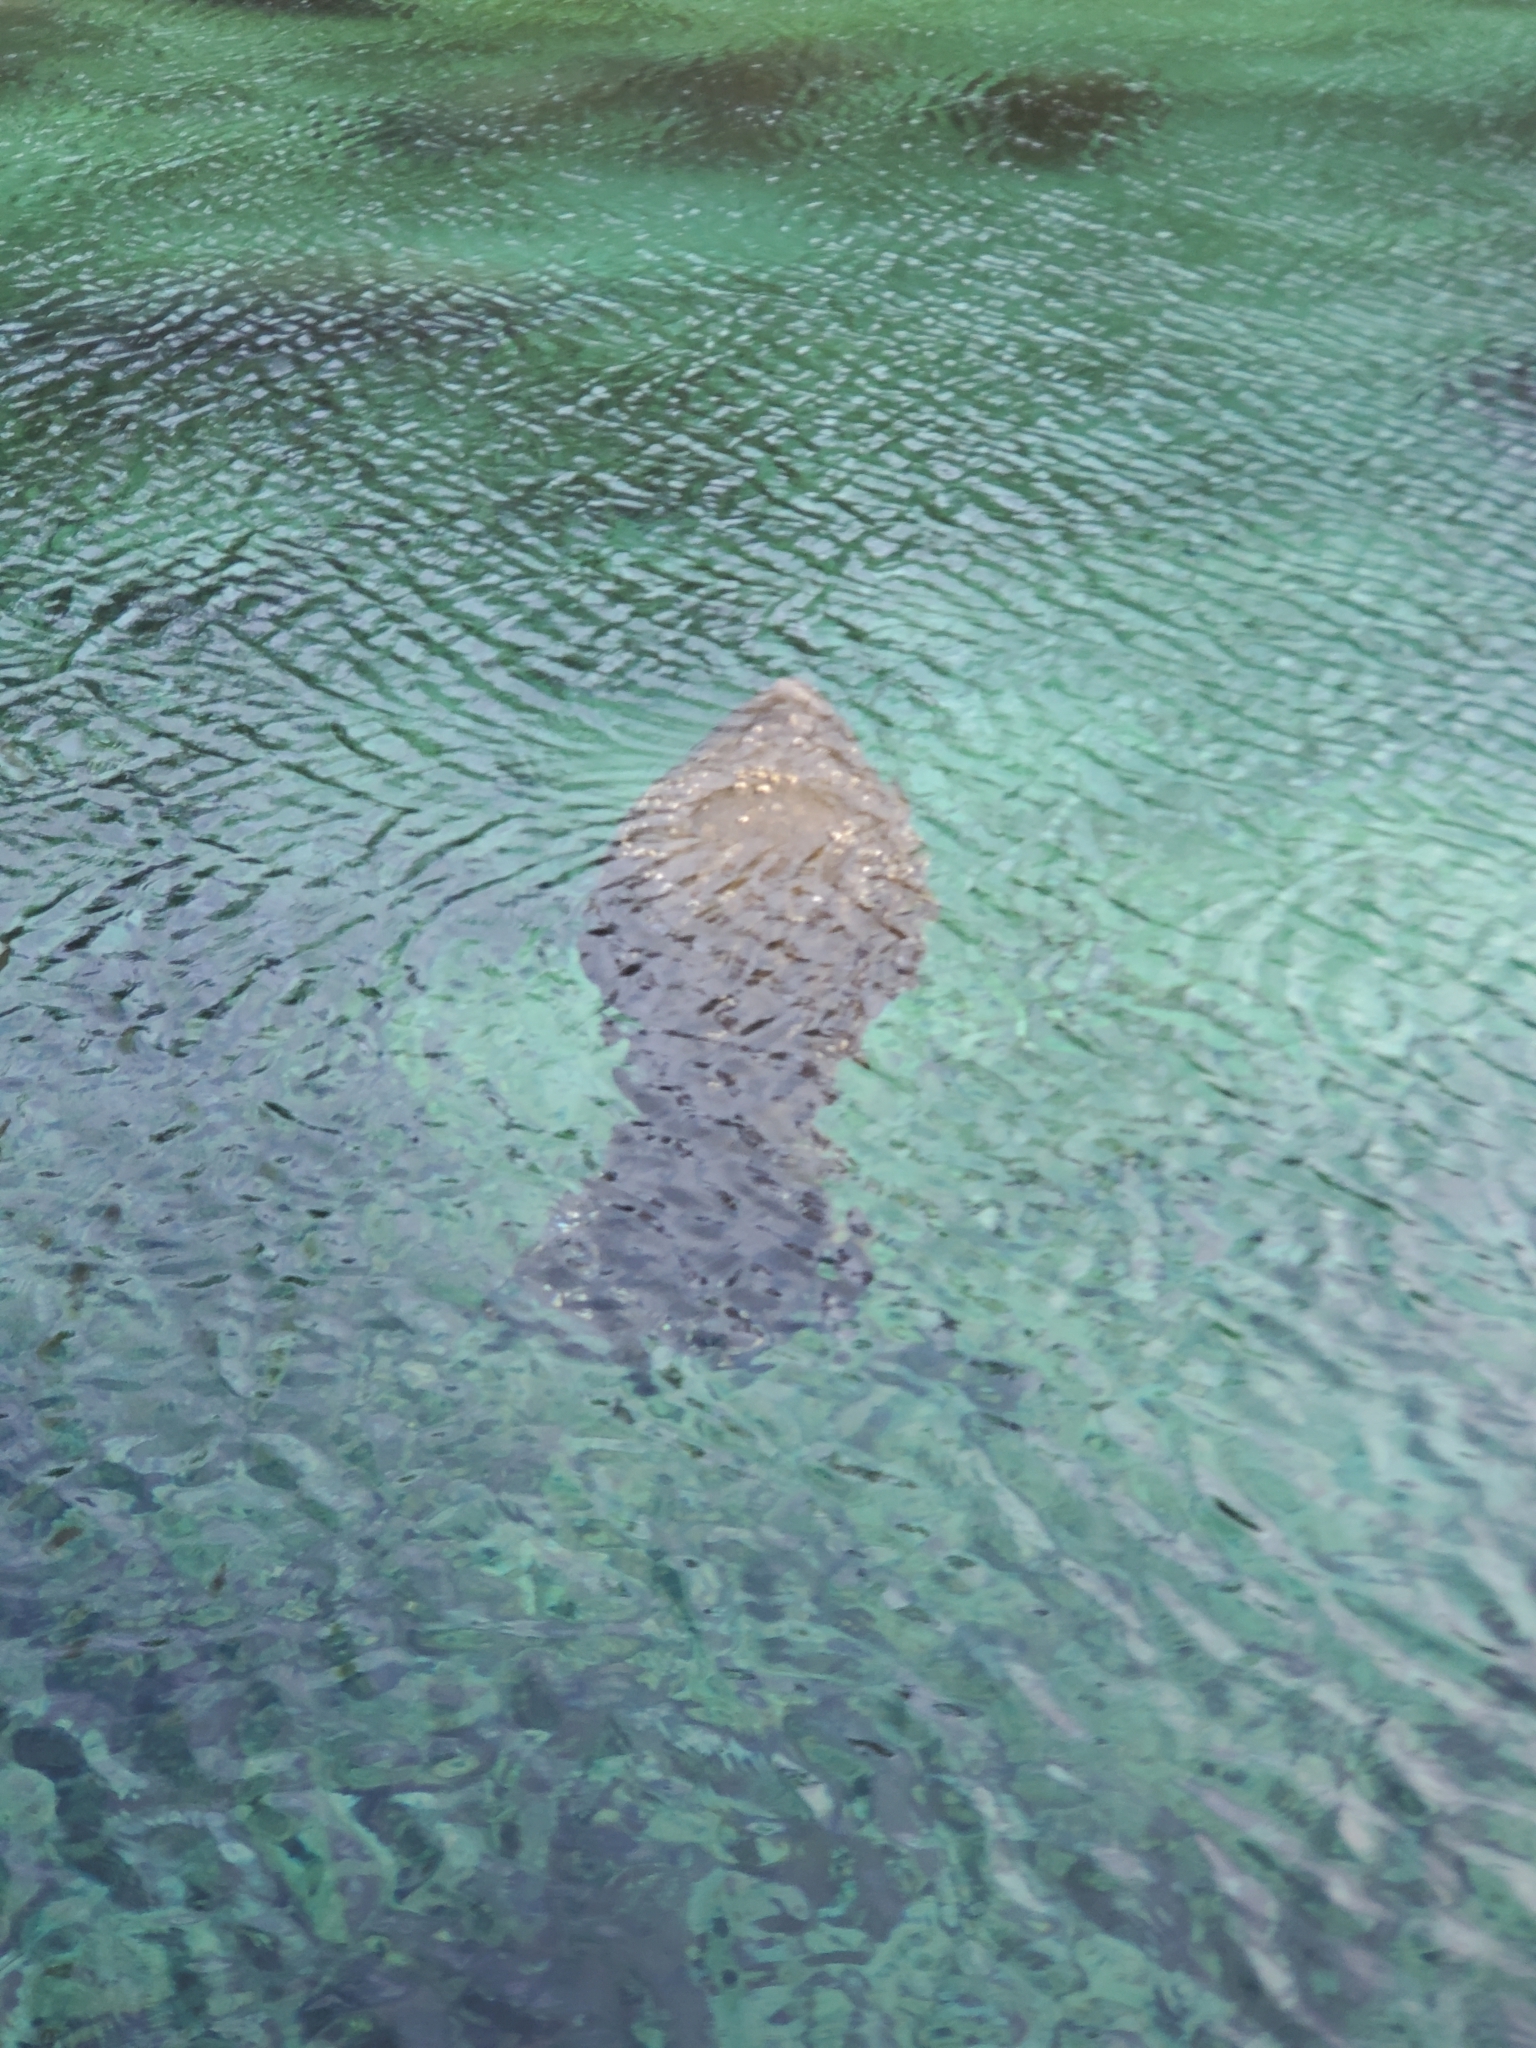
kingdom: Animalia
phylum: Chordata
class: Mammalia
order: Sirenia
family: Trichechidae
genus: Trichechus
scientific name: Trichechus manatus
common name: West indian manatee
